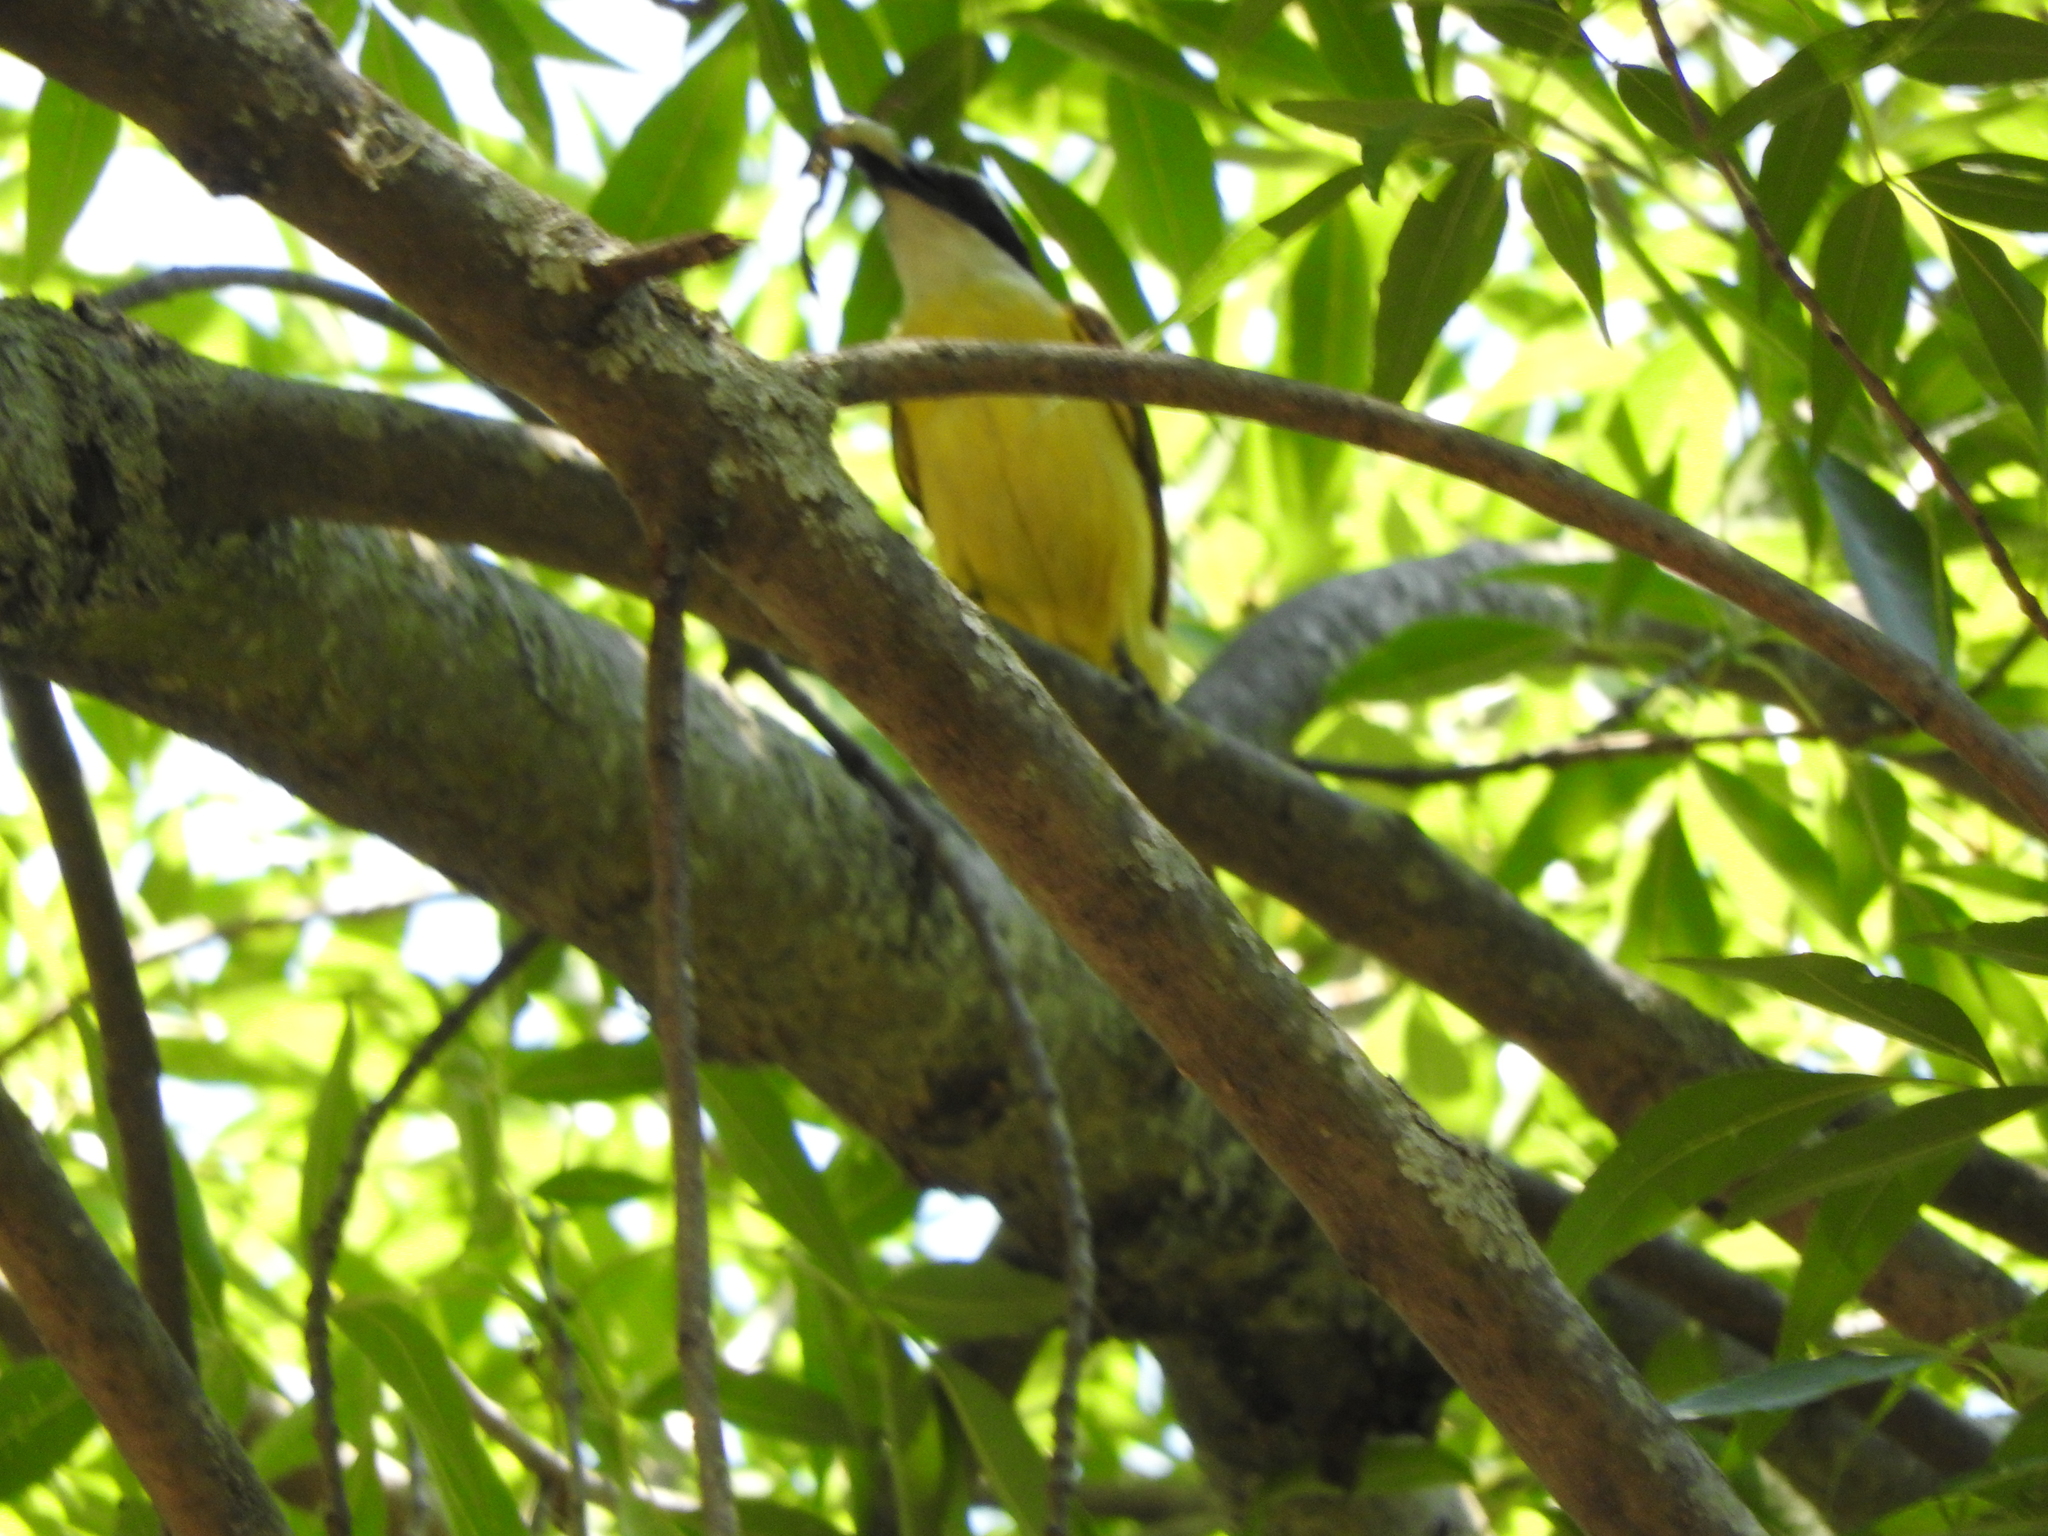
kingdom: Animalia
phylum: Chordata
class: Aves
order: Passeriformes
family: Tyrannidae
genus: Pitangus
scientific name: Pitangus sulphuratus
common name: Great kiskadee
